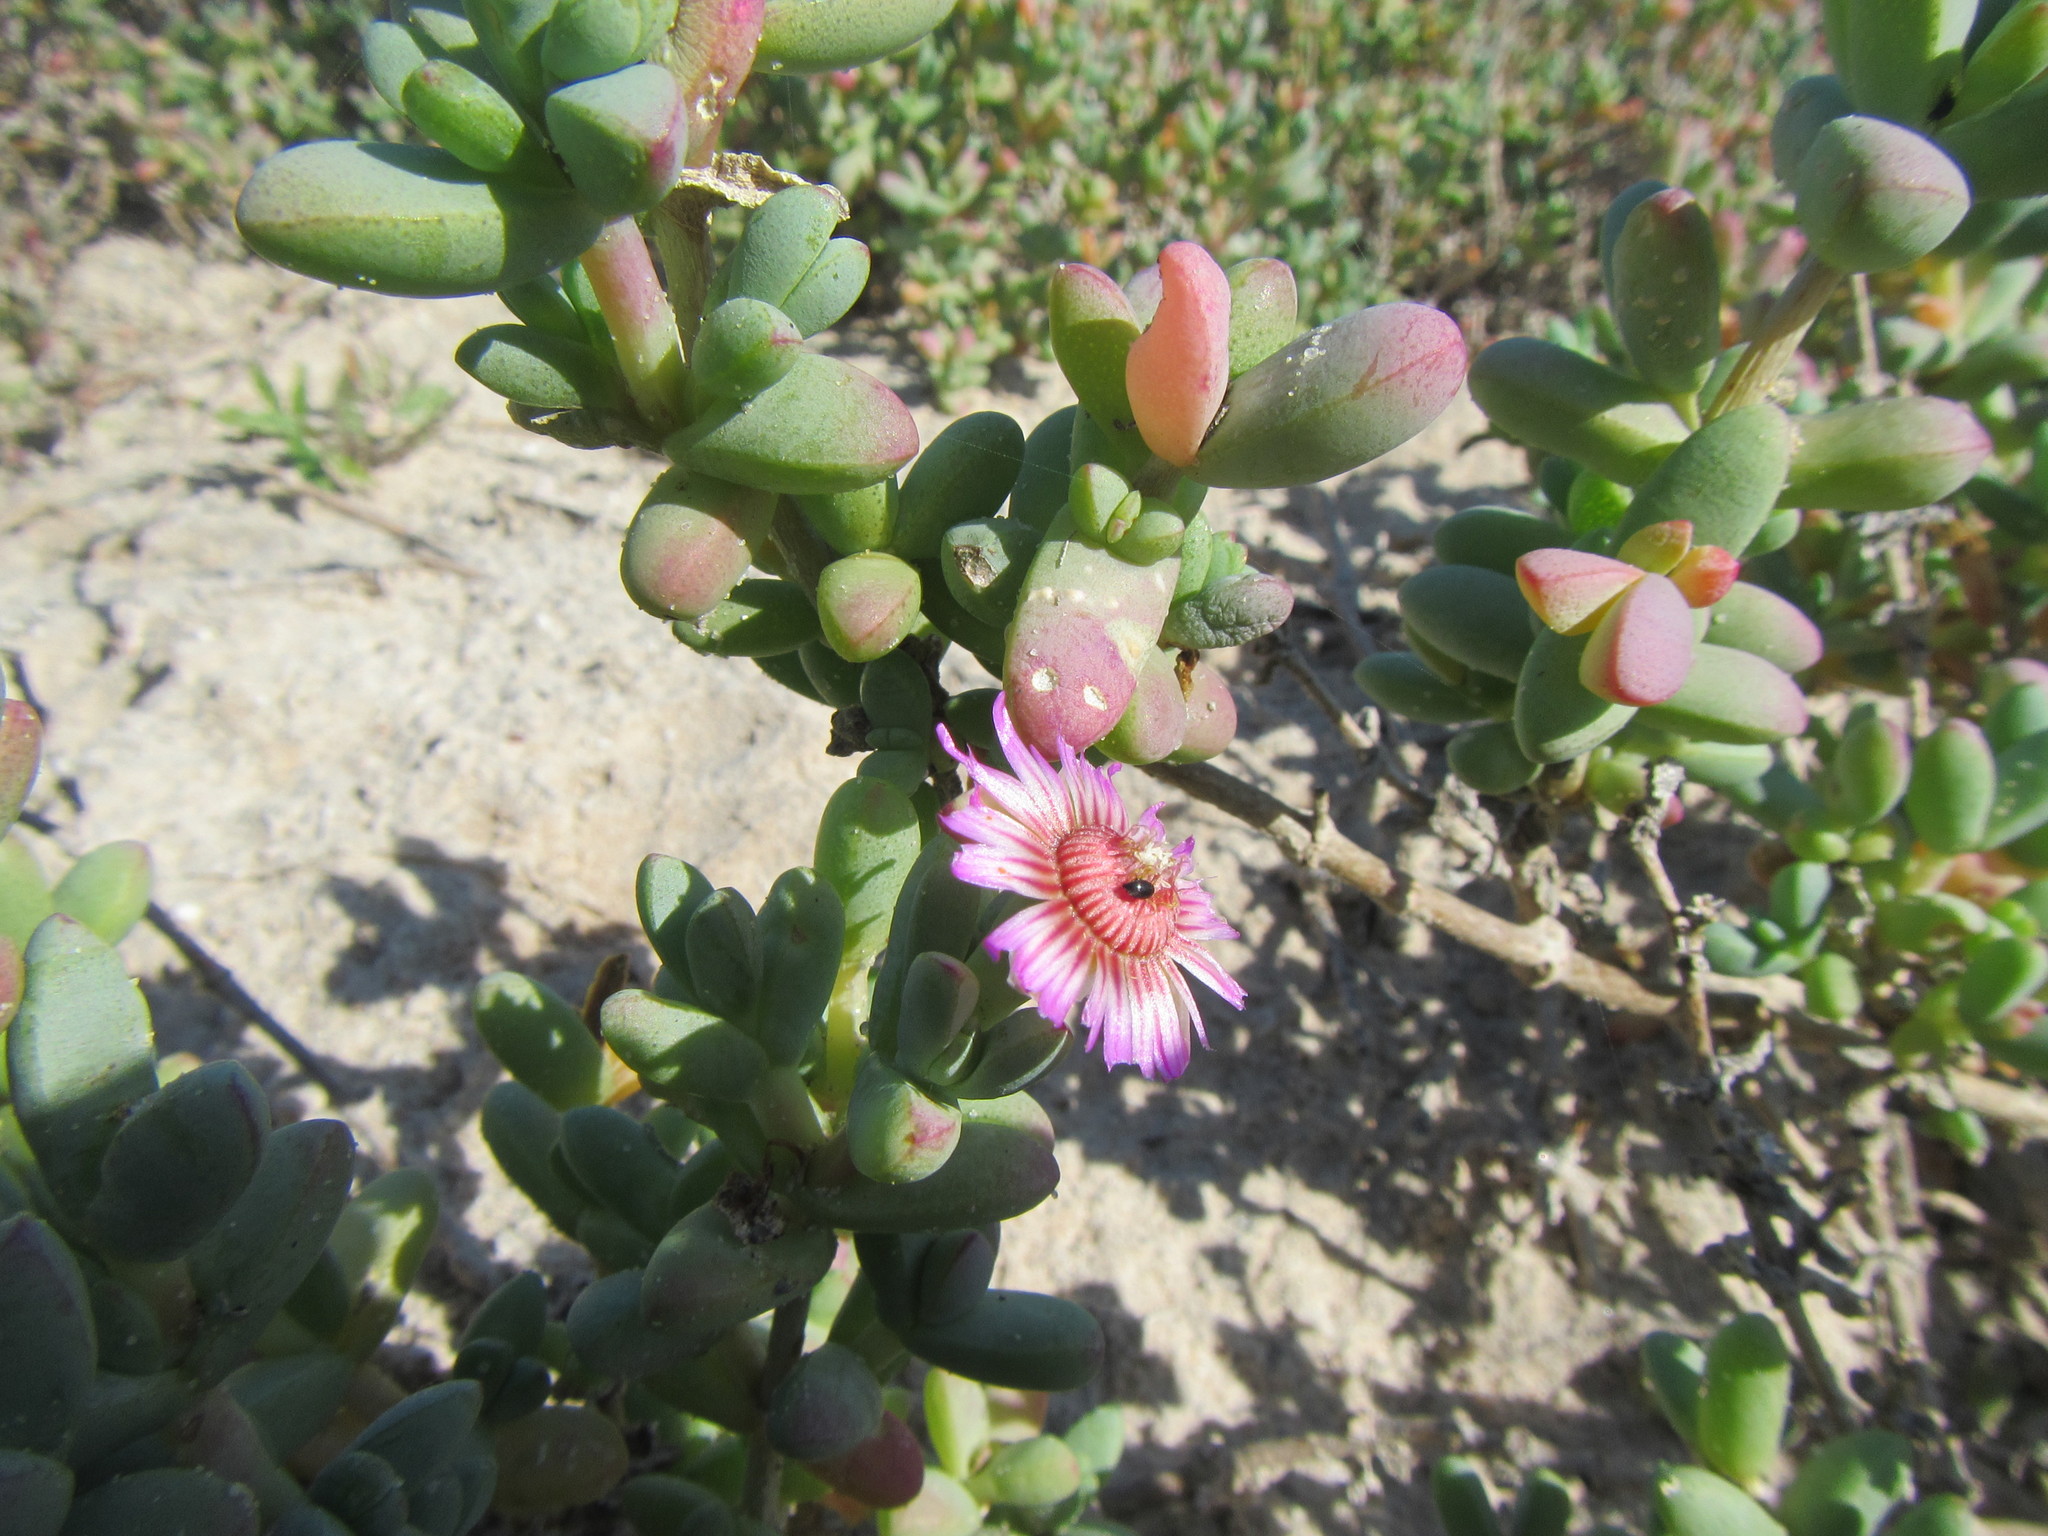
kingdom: Plantae
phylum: Tracheophyta
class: Magnoliopsida
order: Caryophyllales
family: Aizoaceae
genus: Amphibolia
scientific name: Amphibolia laevis
